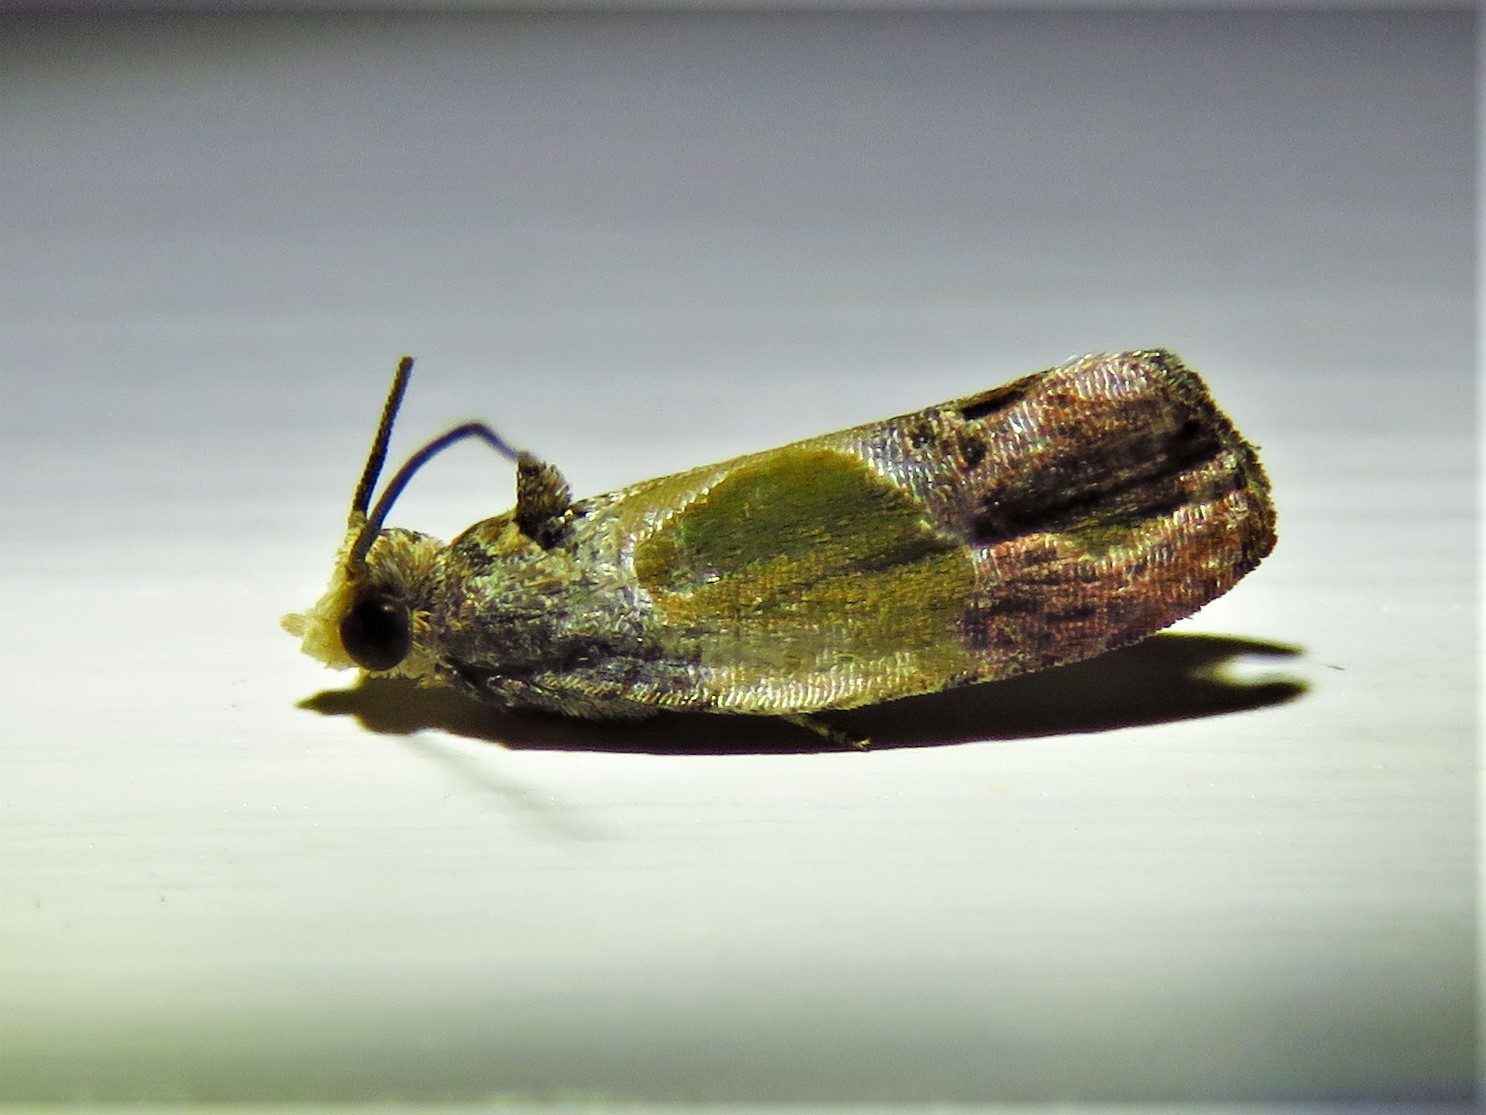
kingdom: Animalia
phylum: Arthropoda
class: Insecta
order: Lepidoptera
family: Tortricidae
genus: Eumarozia
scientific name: Eumarozia malachitana
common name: Sculptured moth
